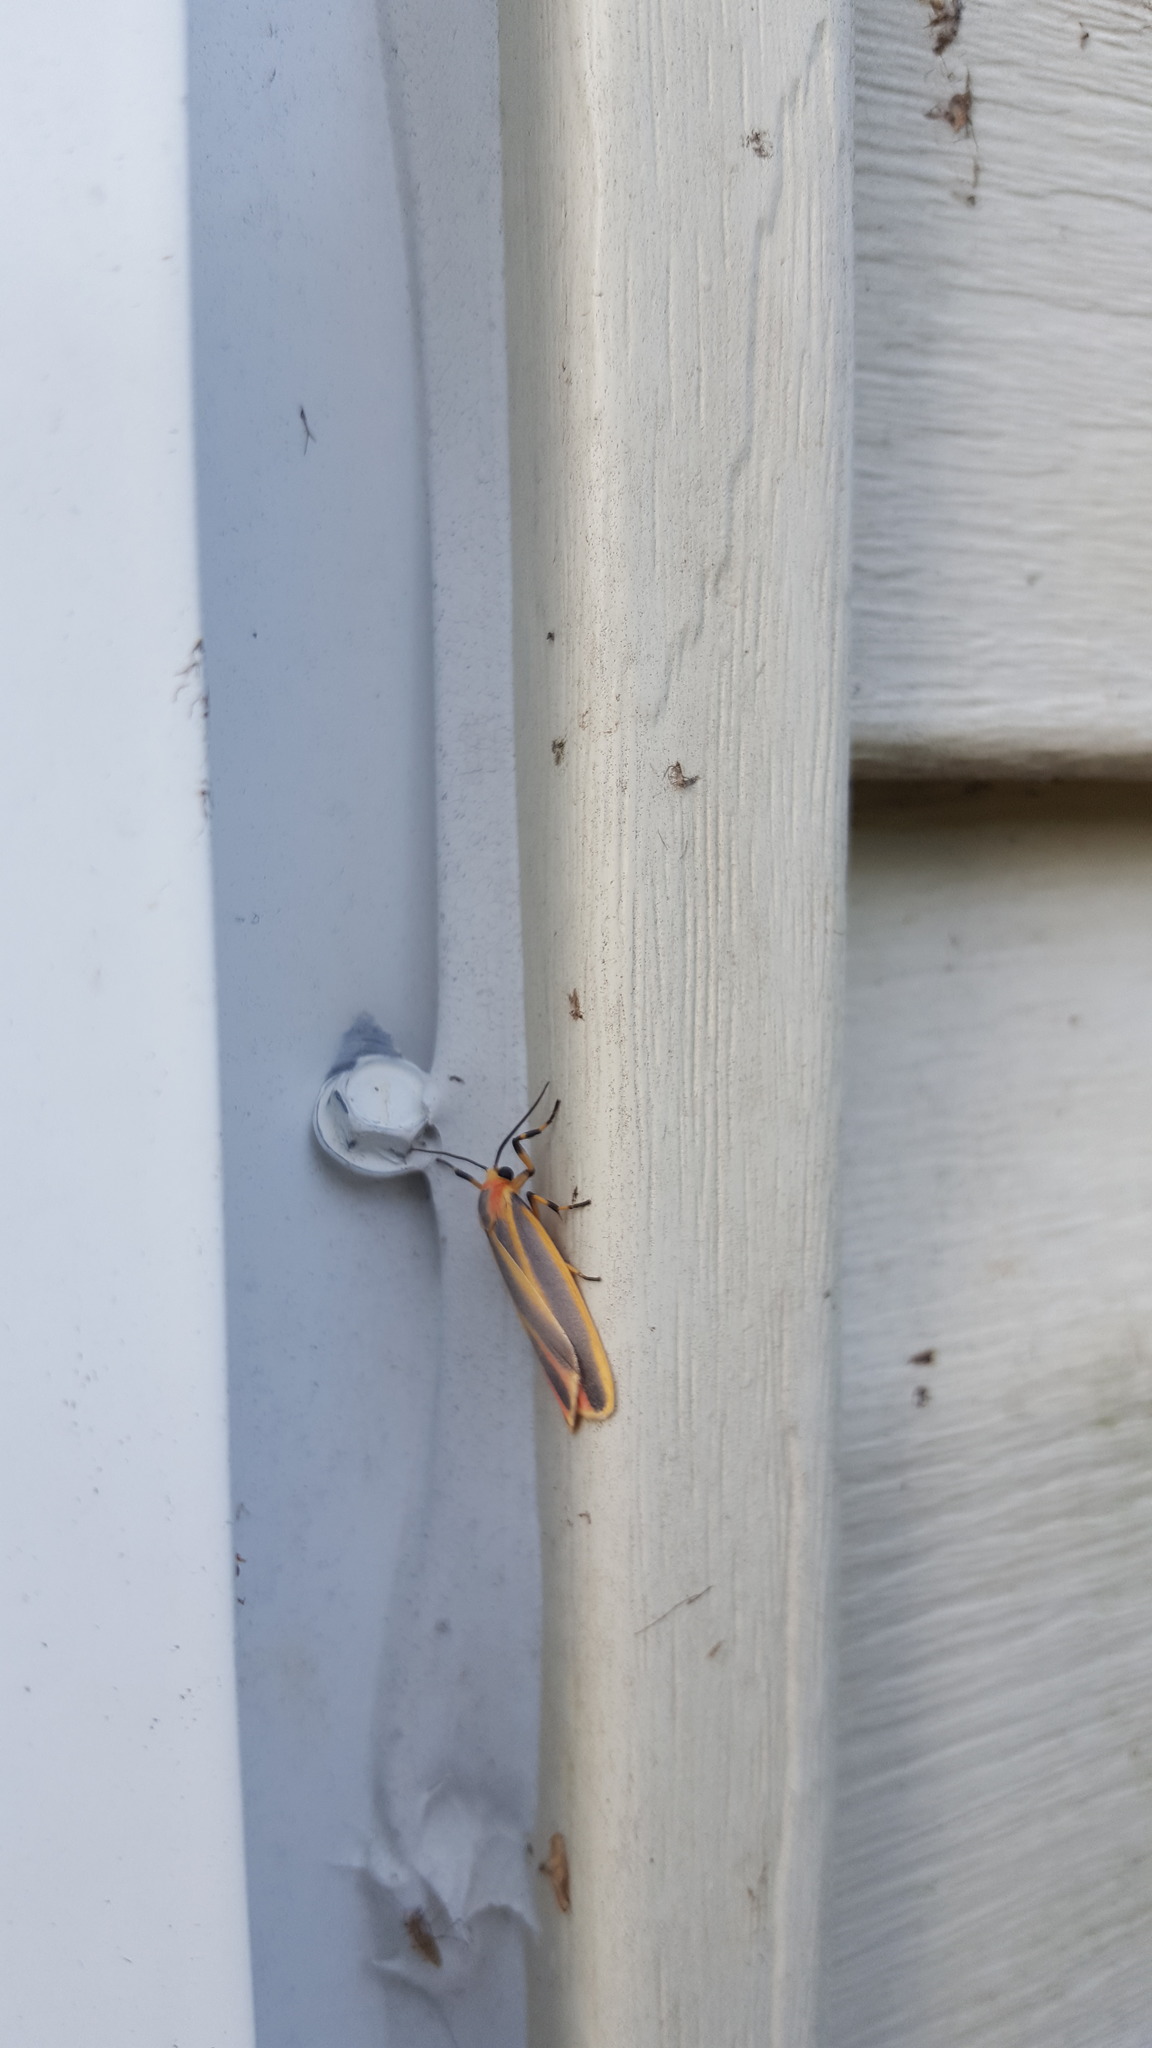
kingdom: Animalia
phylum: Arthropoda
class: Insecta
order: Lepidoptera
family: Erebidae
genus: Hypoprepia
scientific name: Hypoprepia fucosa
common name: Painted lichen moth
